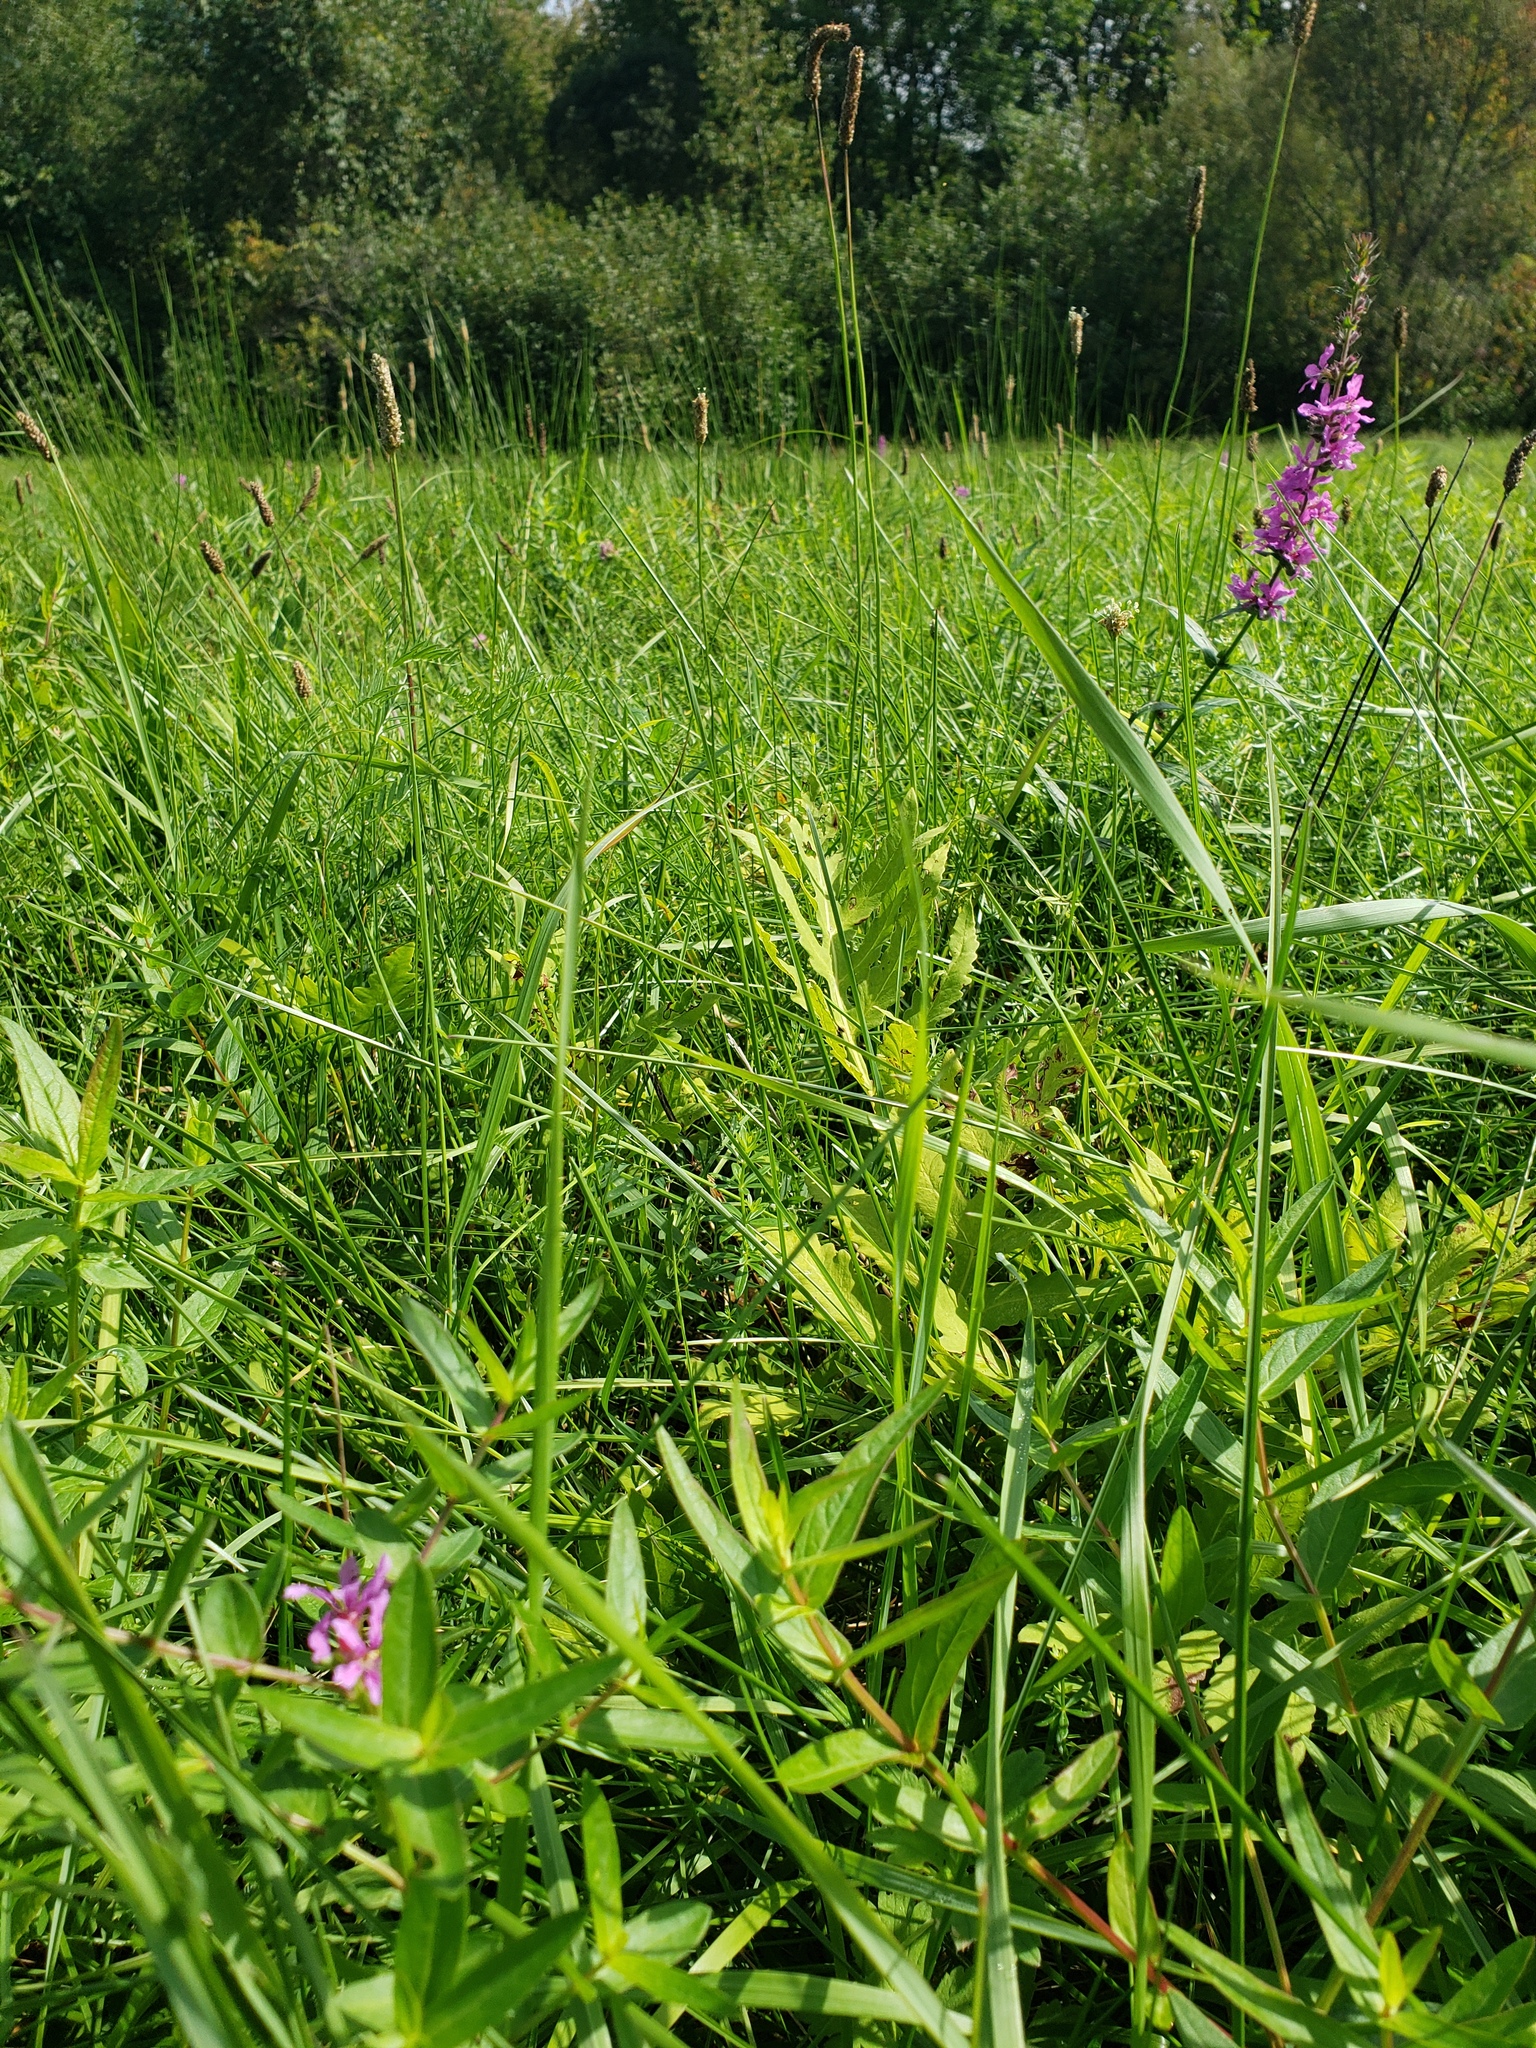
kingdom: Plantae
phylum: Tracheophyta
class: Magnoliopsida
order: Myrtales
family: Lythraceae
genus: Lythrum
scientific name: Lythrum salicaria
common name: Purple loosestrife
